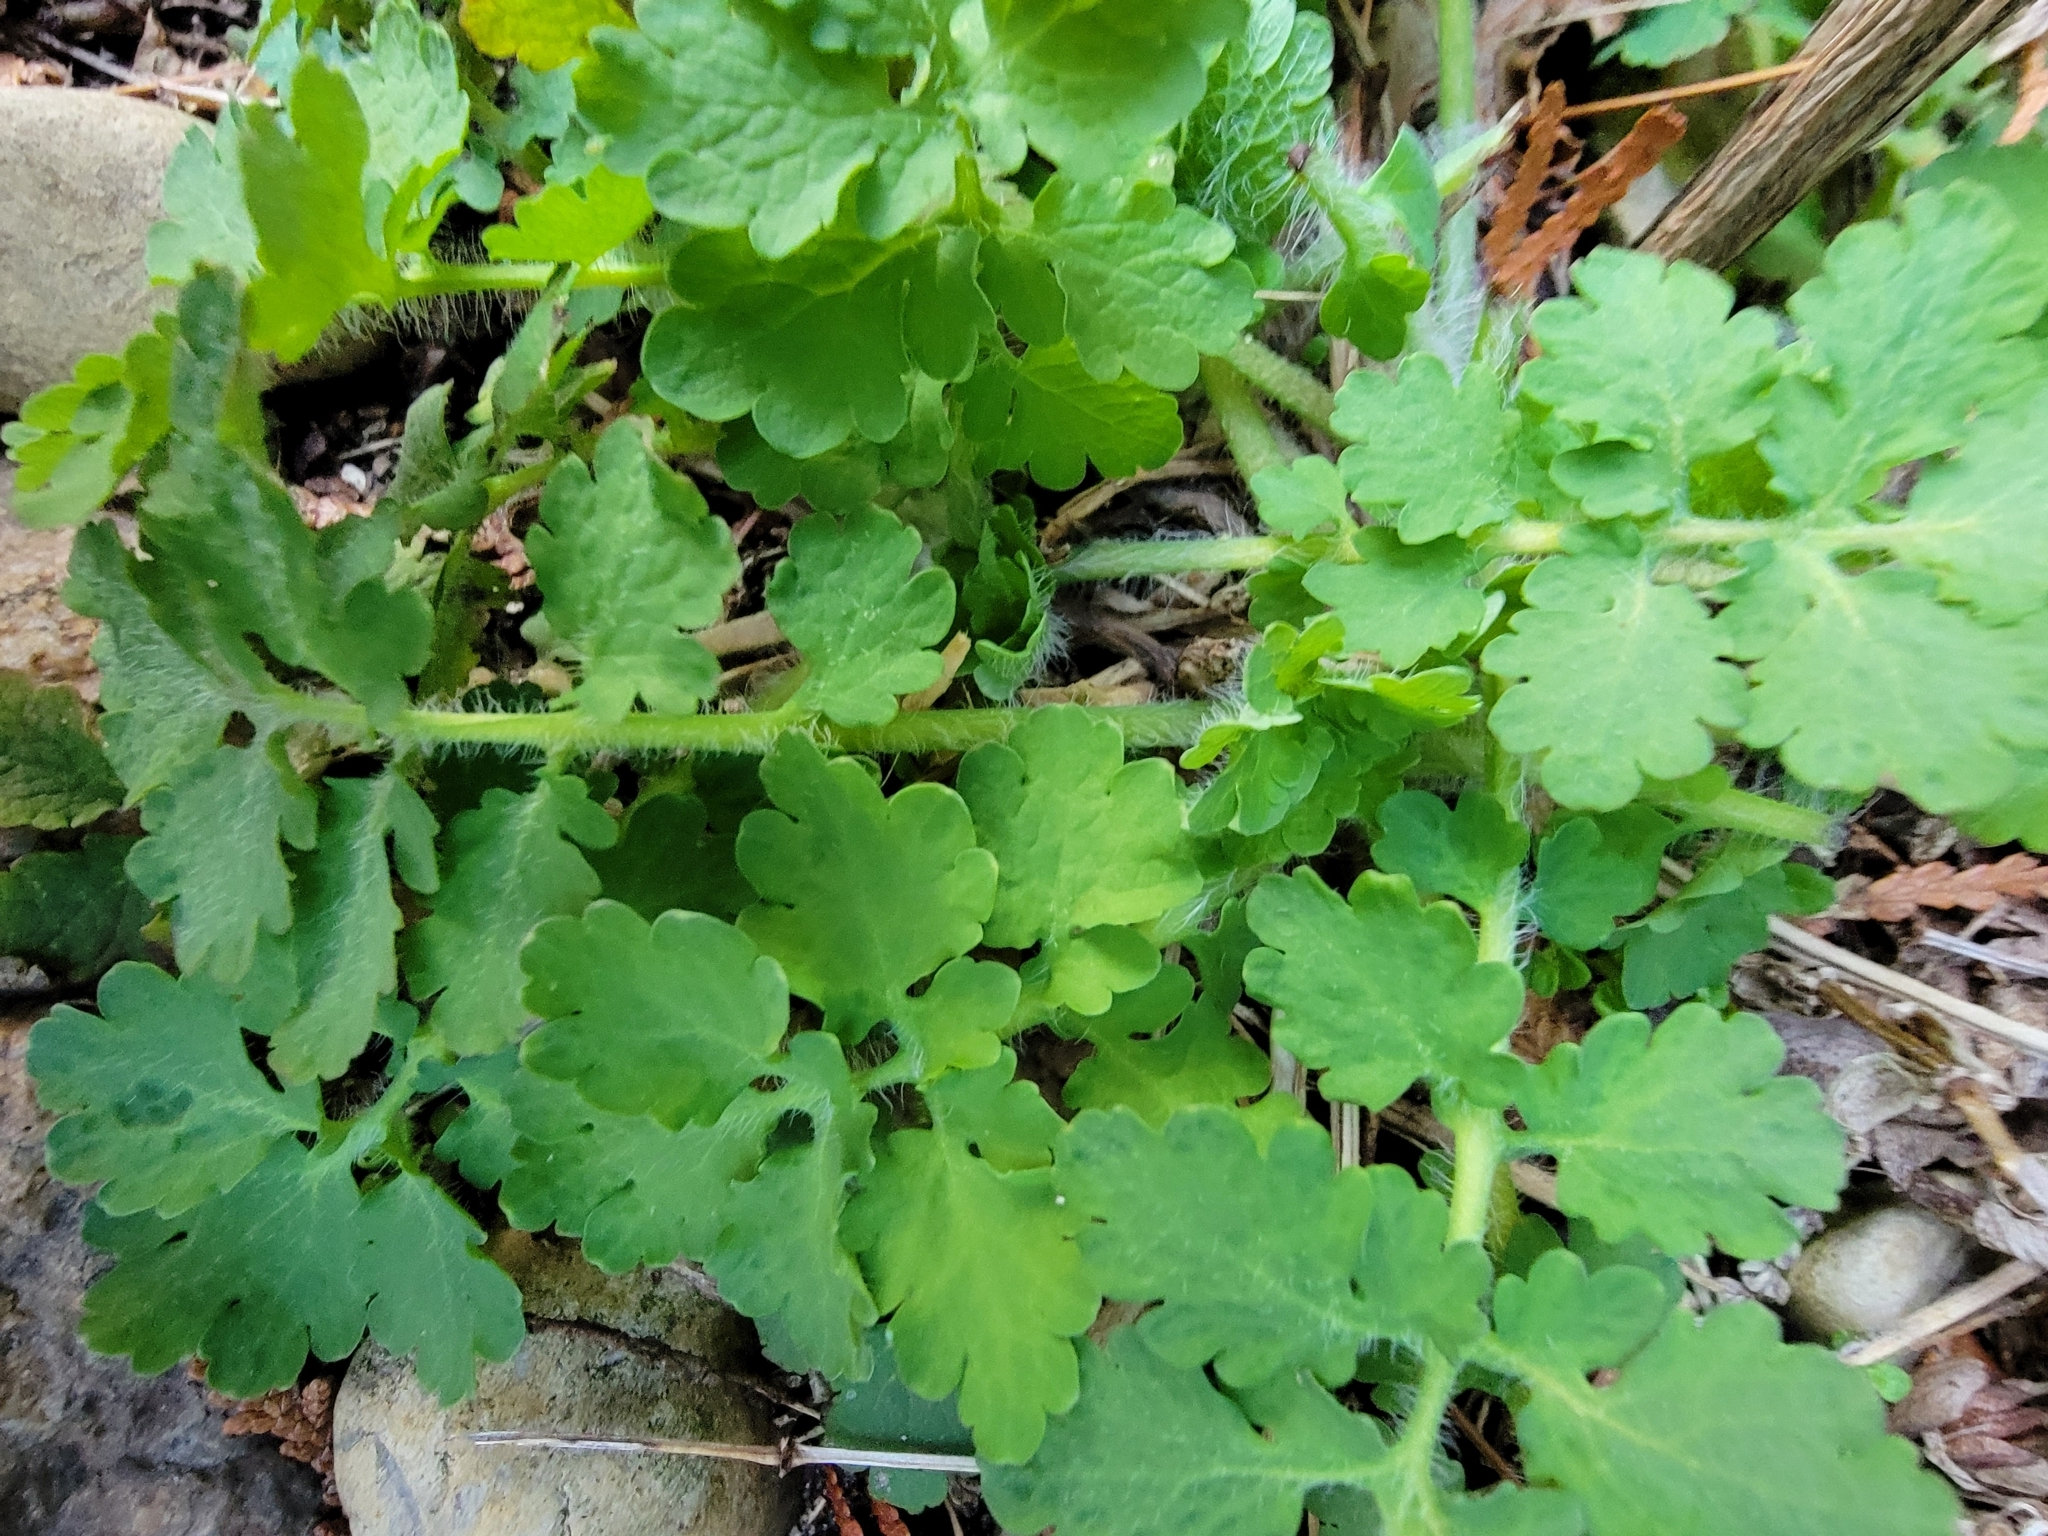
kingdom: Plantae
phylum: Tracheophyta
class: Magnoliopsida
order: Ranunculales
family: Papaveraceae
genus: Chelidonium
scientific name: Chelidonium majus
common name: Greater celandine
